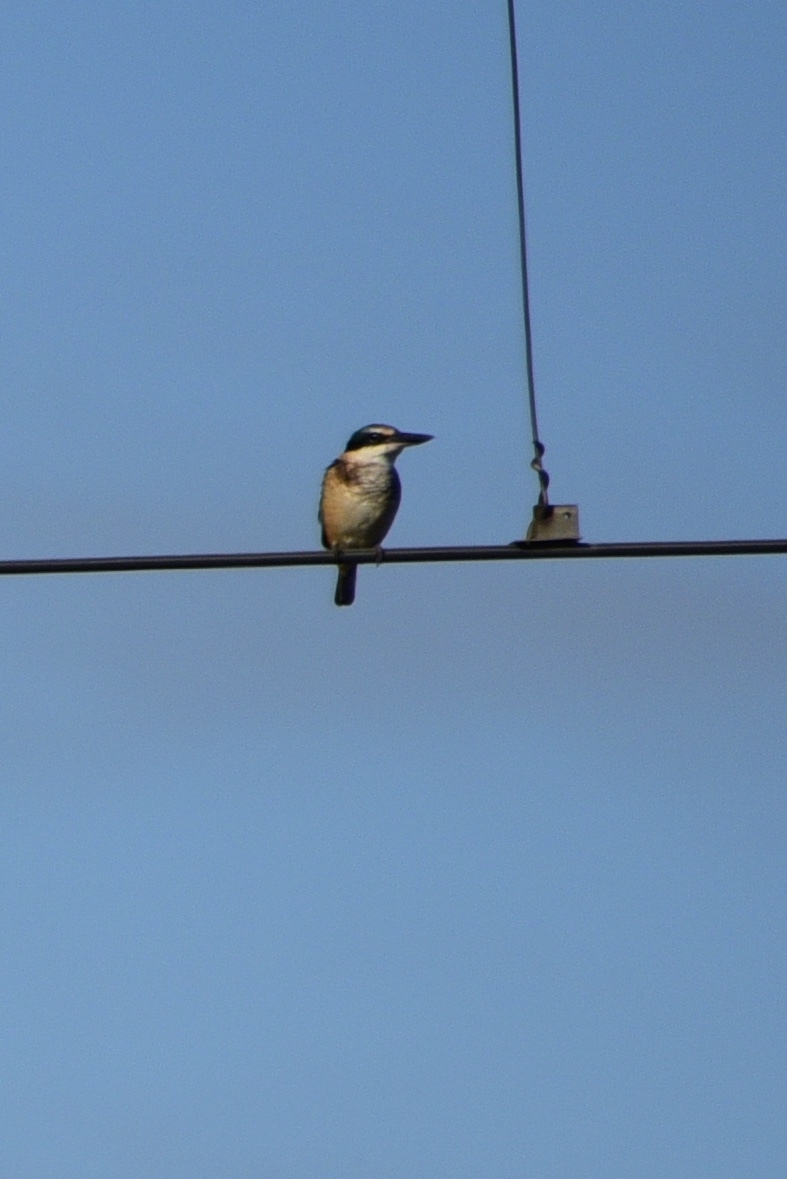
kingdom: Animalia
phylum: Chordata
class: Aves
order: Coraciiformes
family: Alcedinidae
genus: Todiramphus
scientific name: Todiramphus sanctus
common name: Sacred kingfisher
